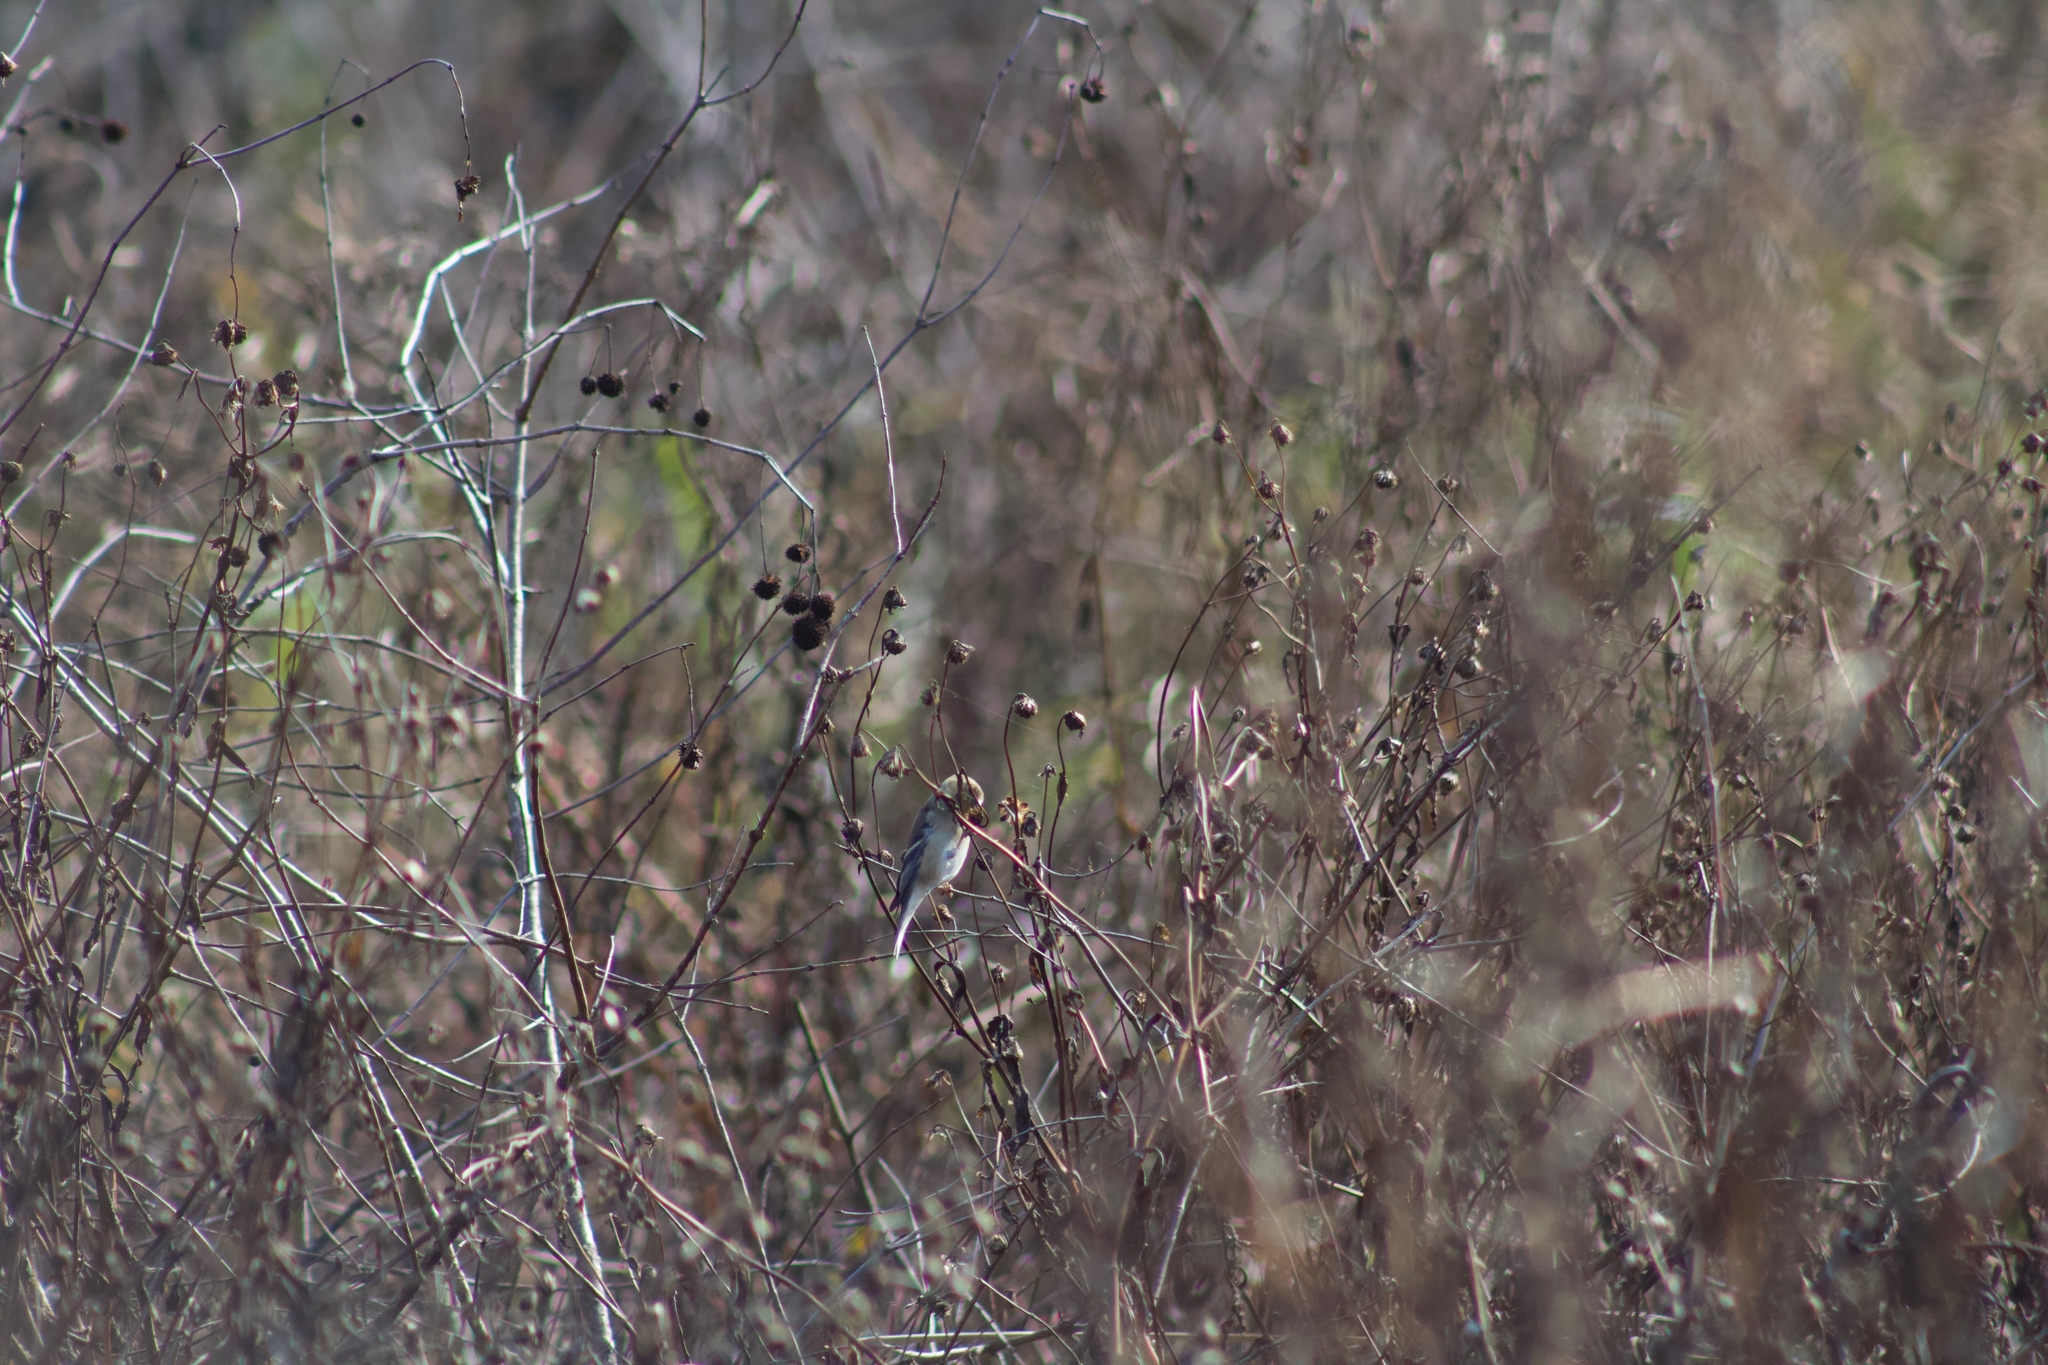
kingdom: Animalia
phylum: Chordata
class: Aves
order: Passeriformes
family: Fringillidae
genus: Spinus
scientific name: Spinus tristis
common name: American goldfinch
